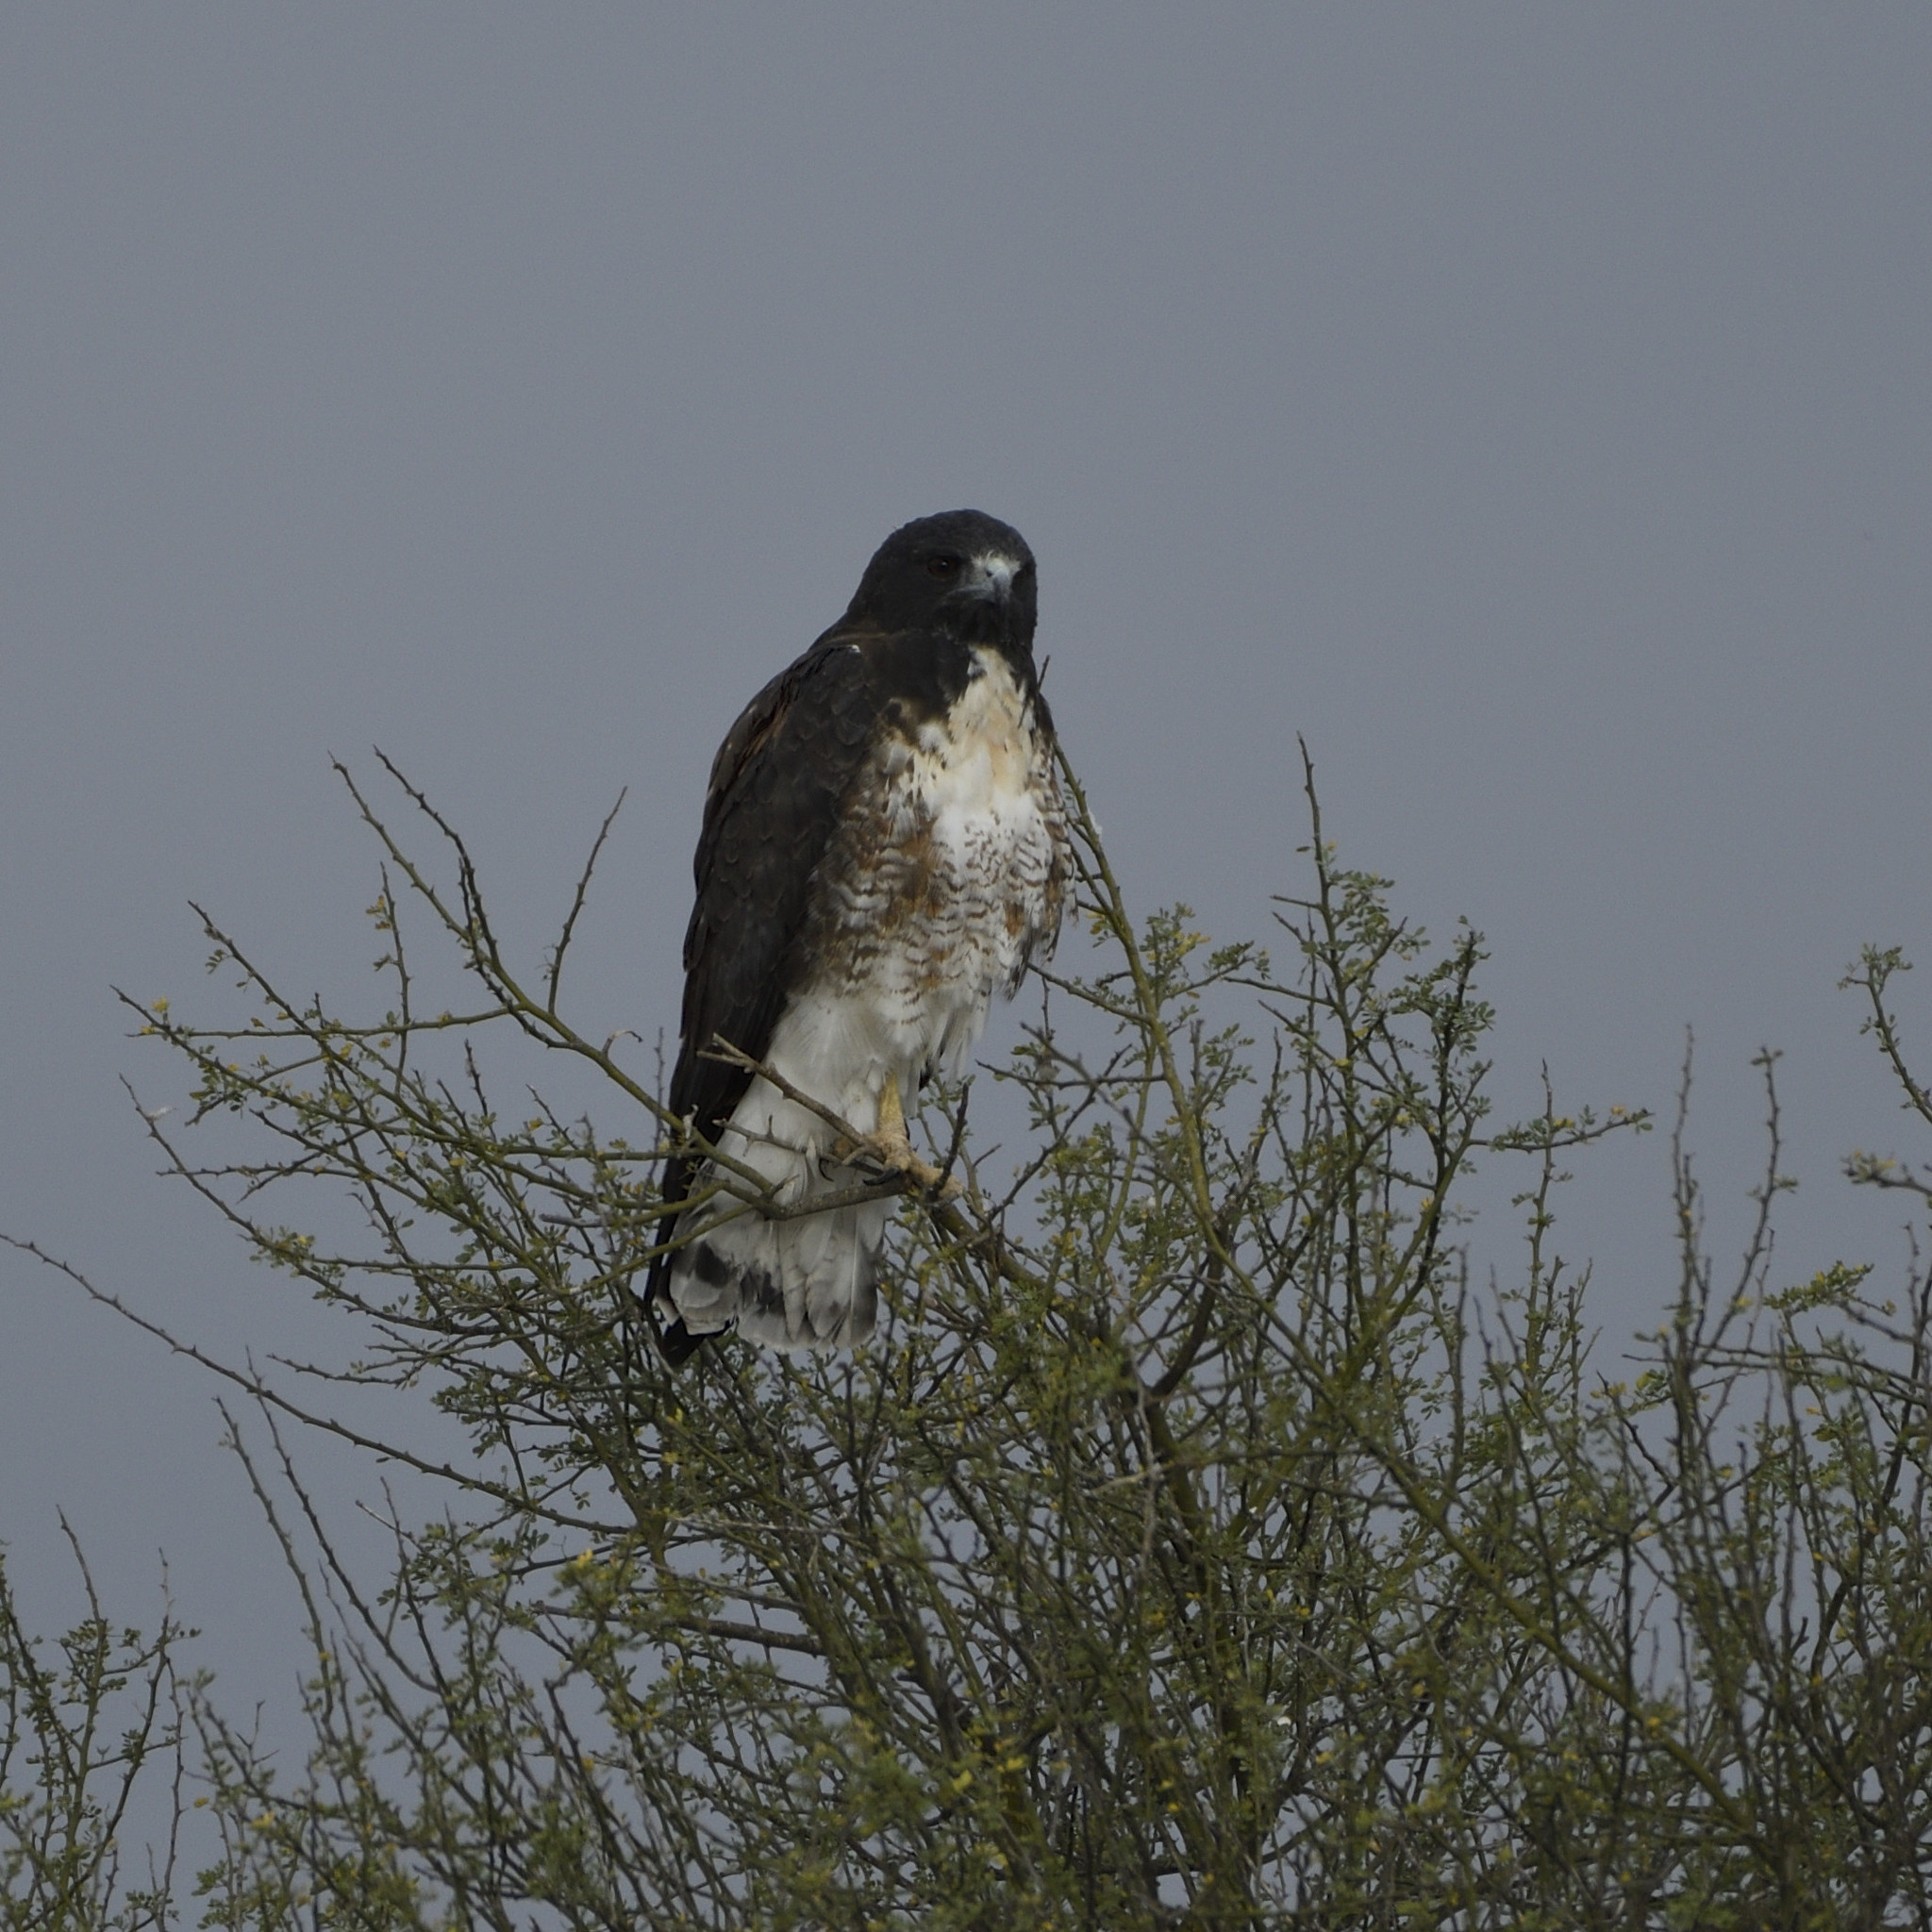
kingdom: Animalia
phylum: Chordata
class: Aves
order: Accipitriformes
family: Accipitridae
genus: Buteo
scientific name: Buteo albicaudatus
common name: White-tailed hawk
